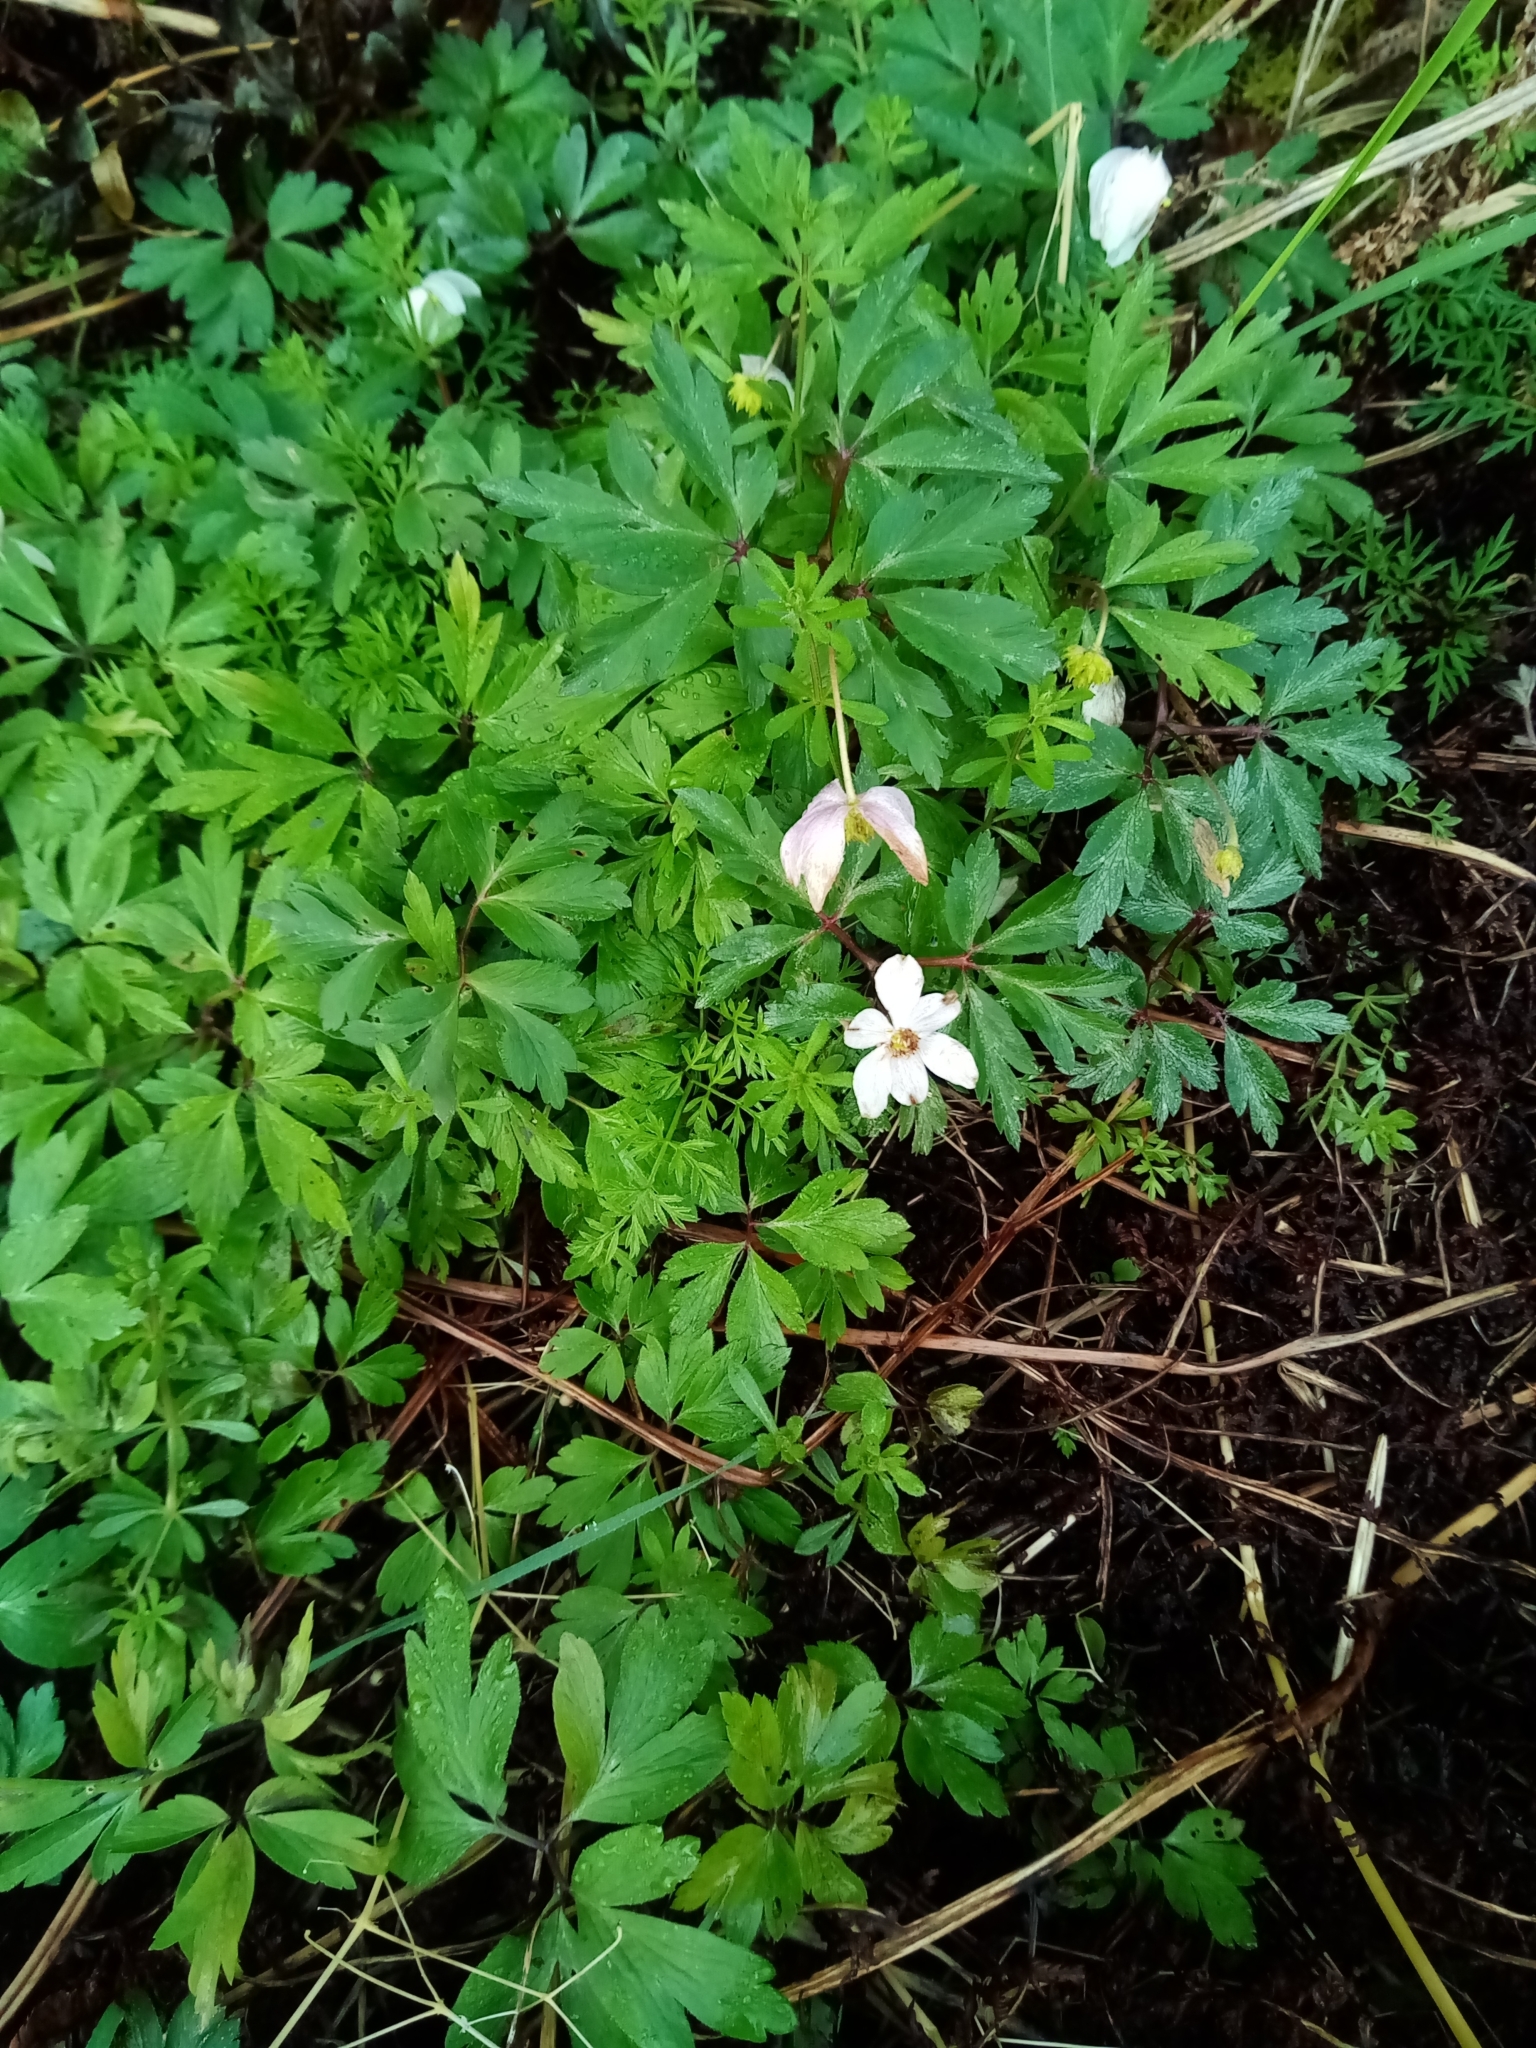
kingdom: Plantae
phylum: Tracheophyta
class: Magnoliopsida
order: Ranunculales
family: Ranunculaceae
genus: Anemone
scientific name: Anemone nemorosa
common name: Wood anemone
